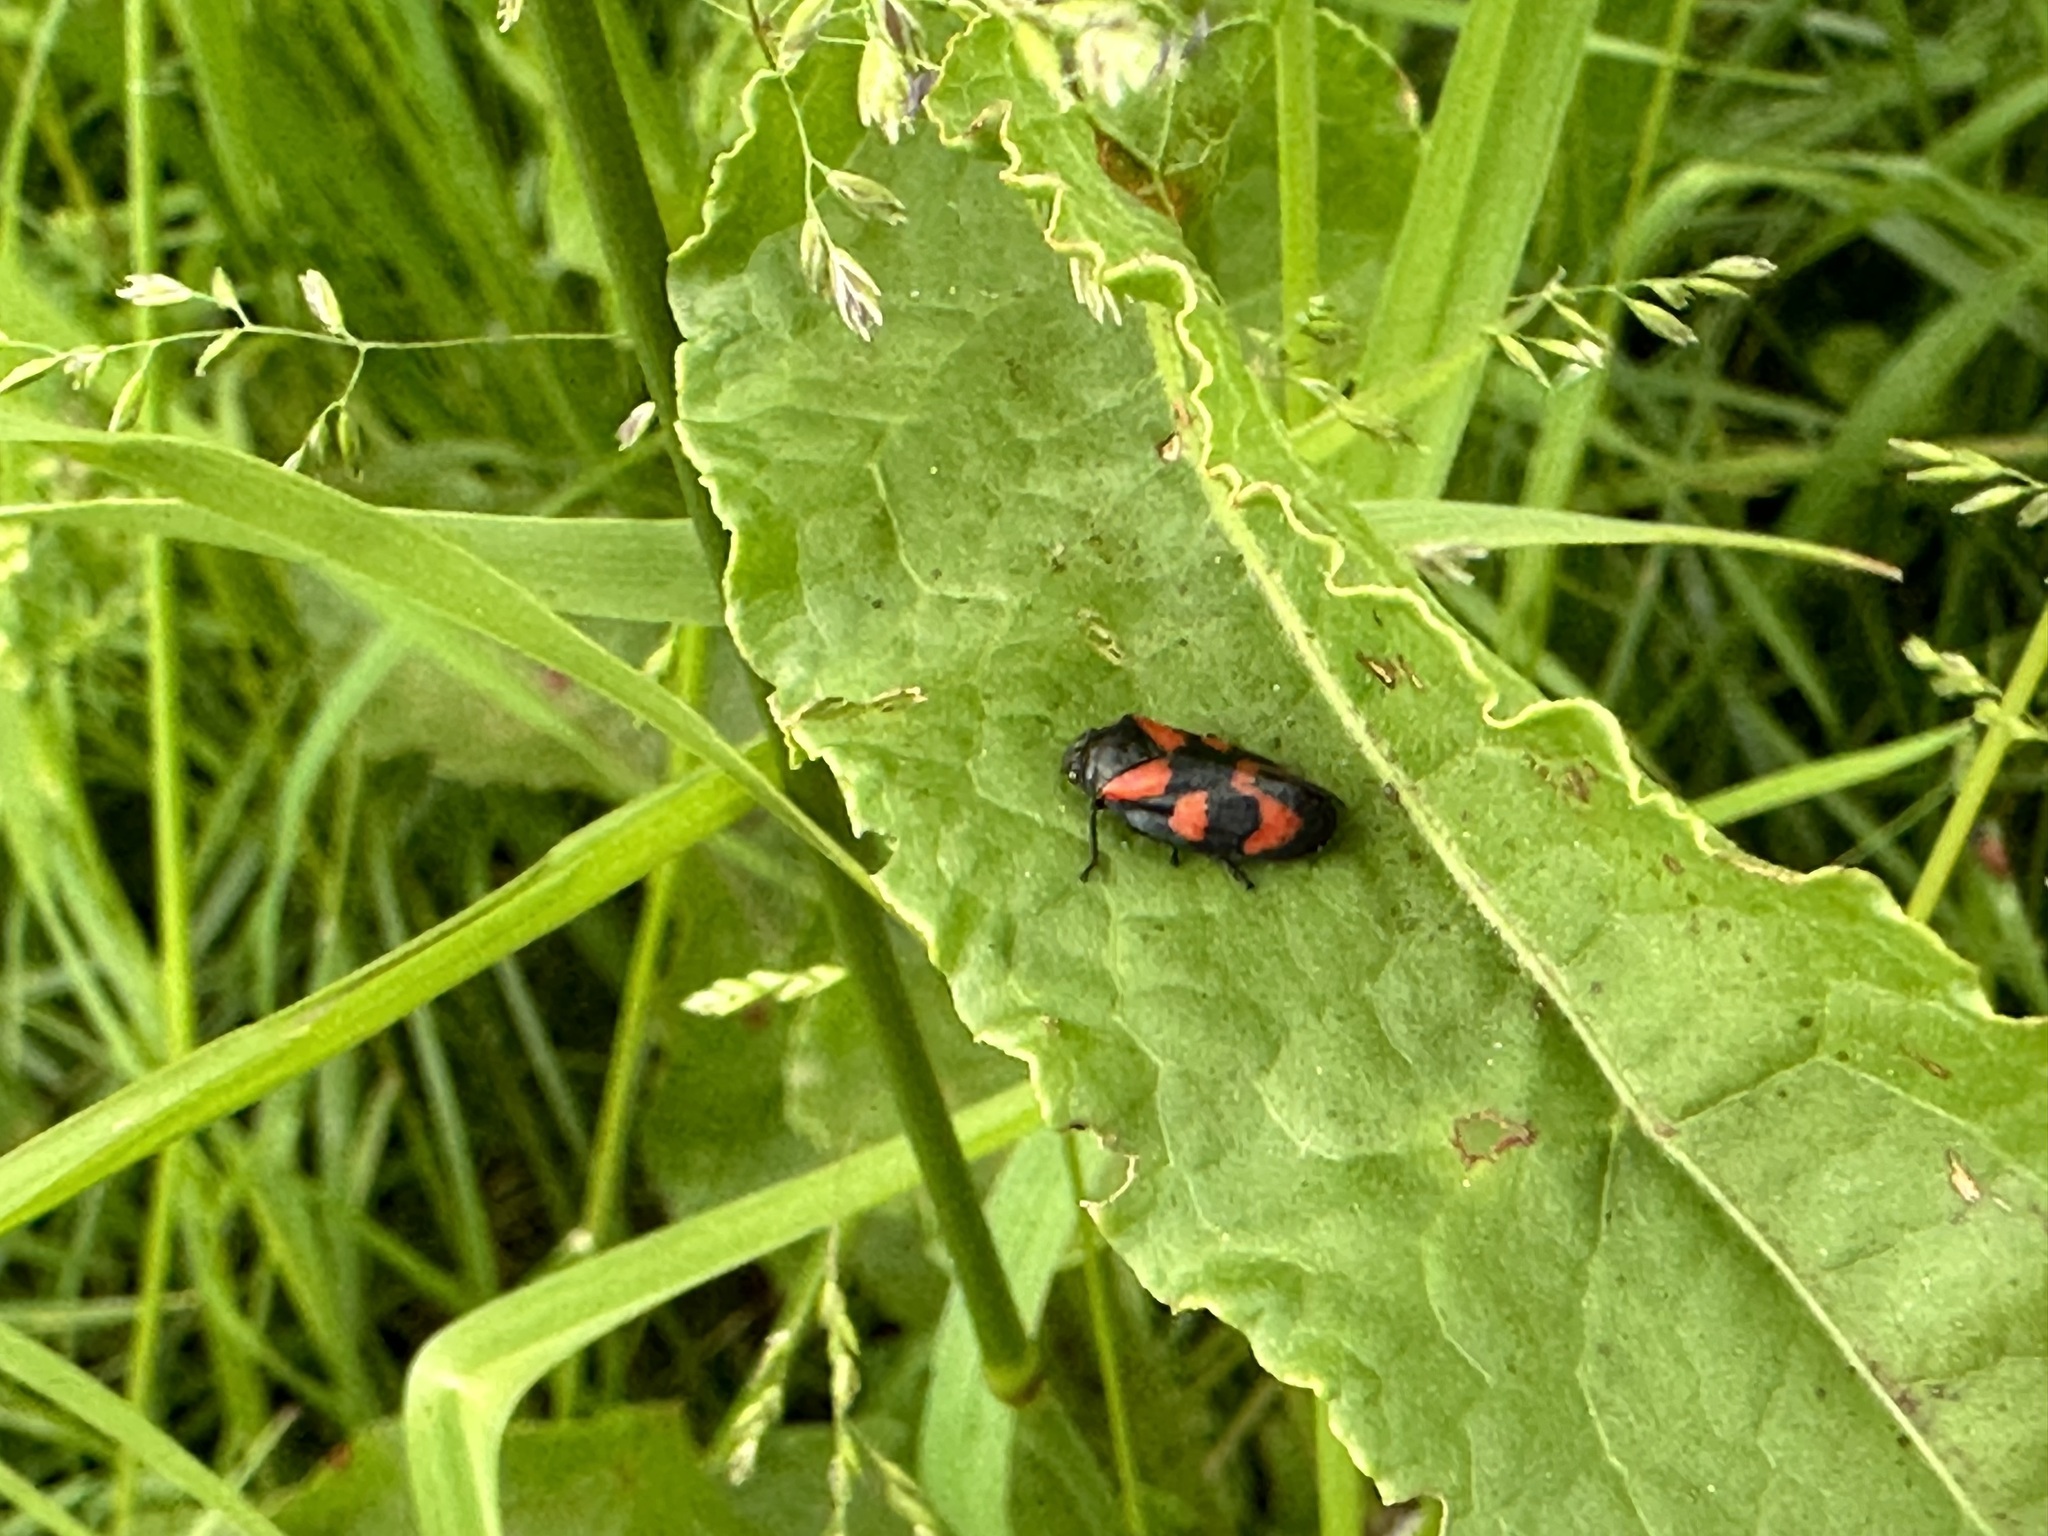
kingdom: Animalia
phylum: Arthropoda
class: Insecta
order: Hemiptera
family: Cercopidae
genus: Cercopis
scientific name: Cercopis vulnerata
